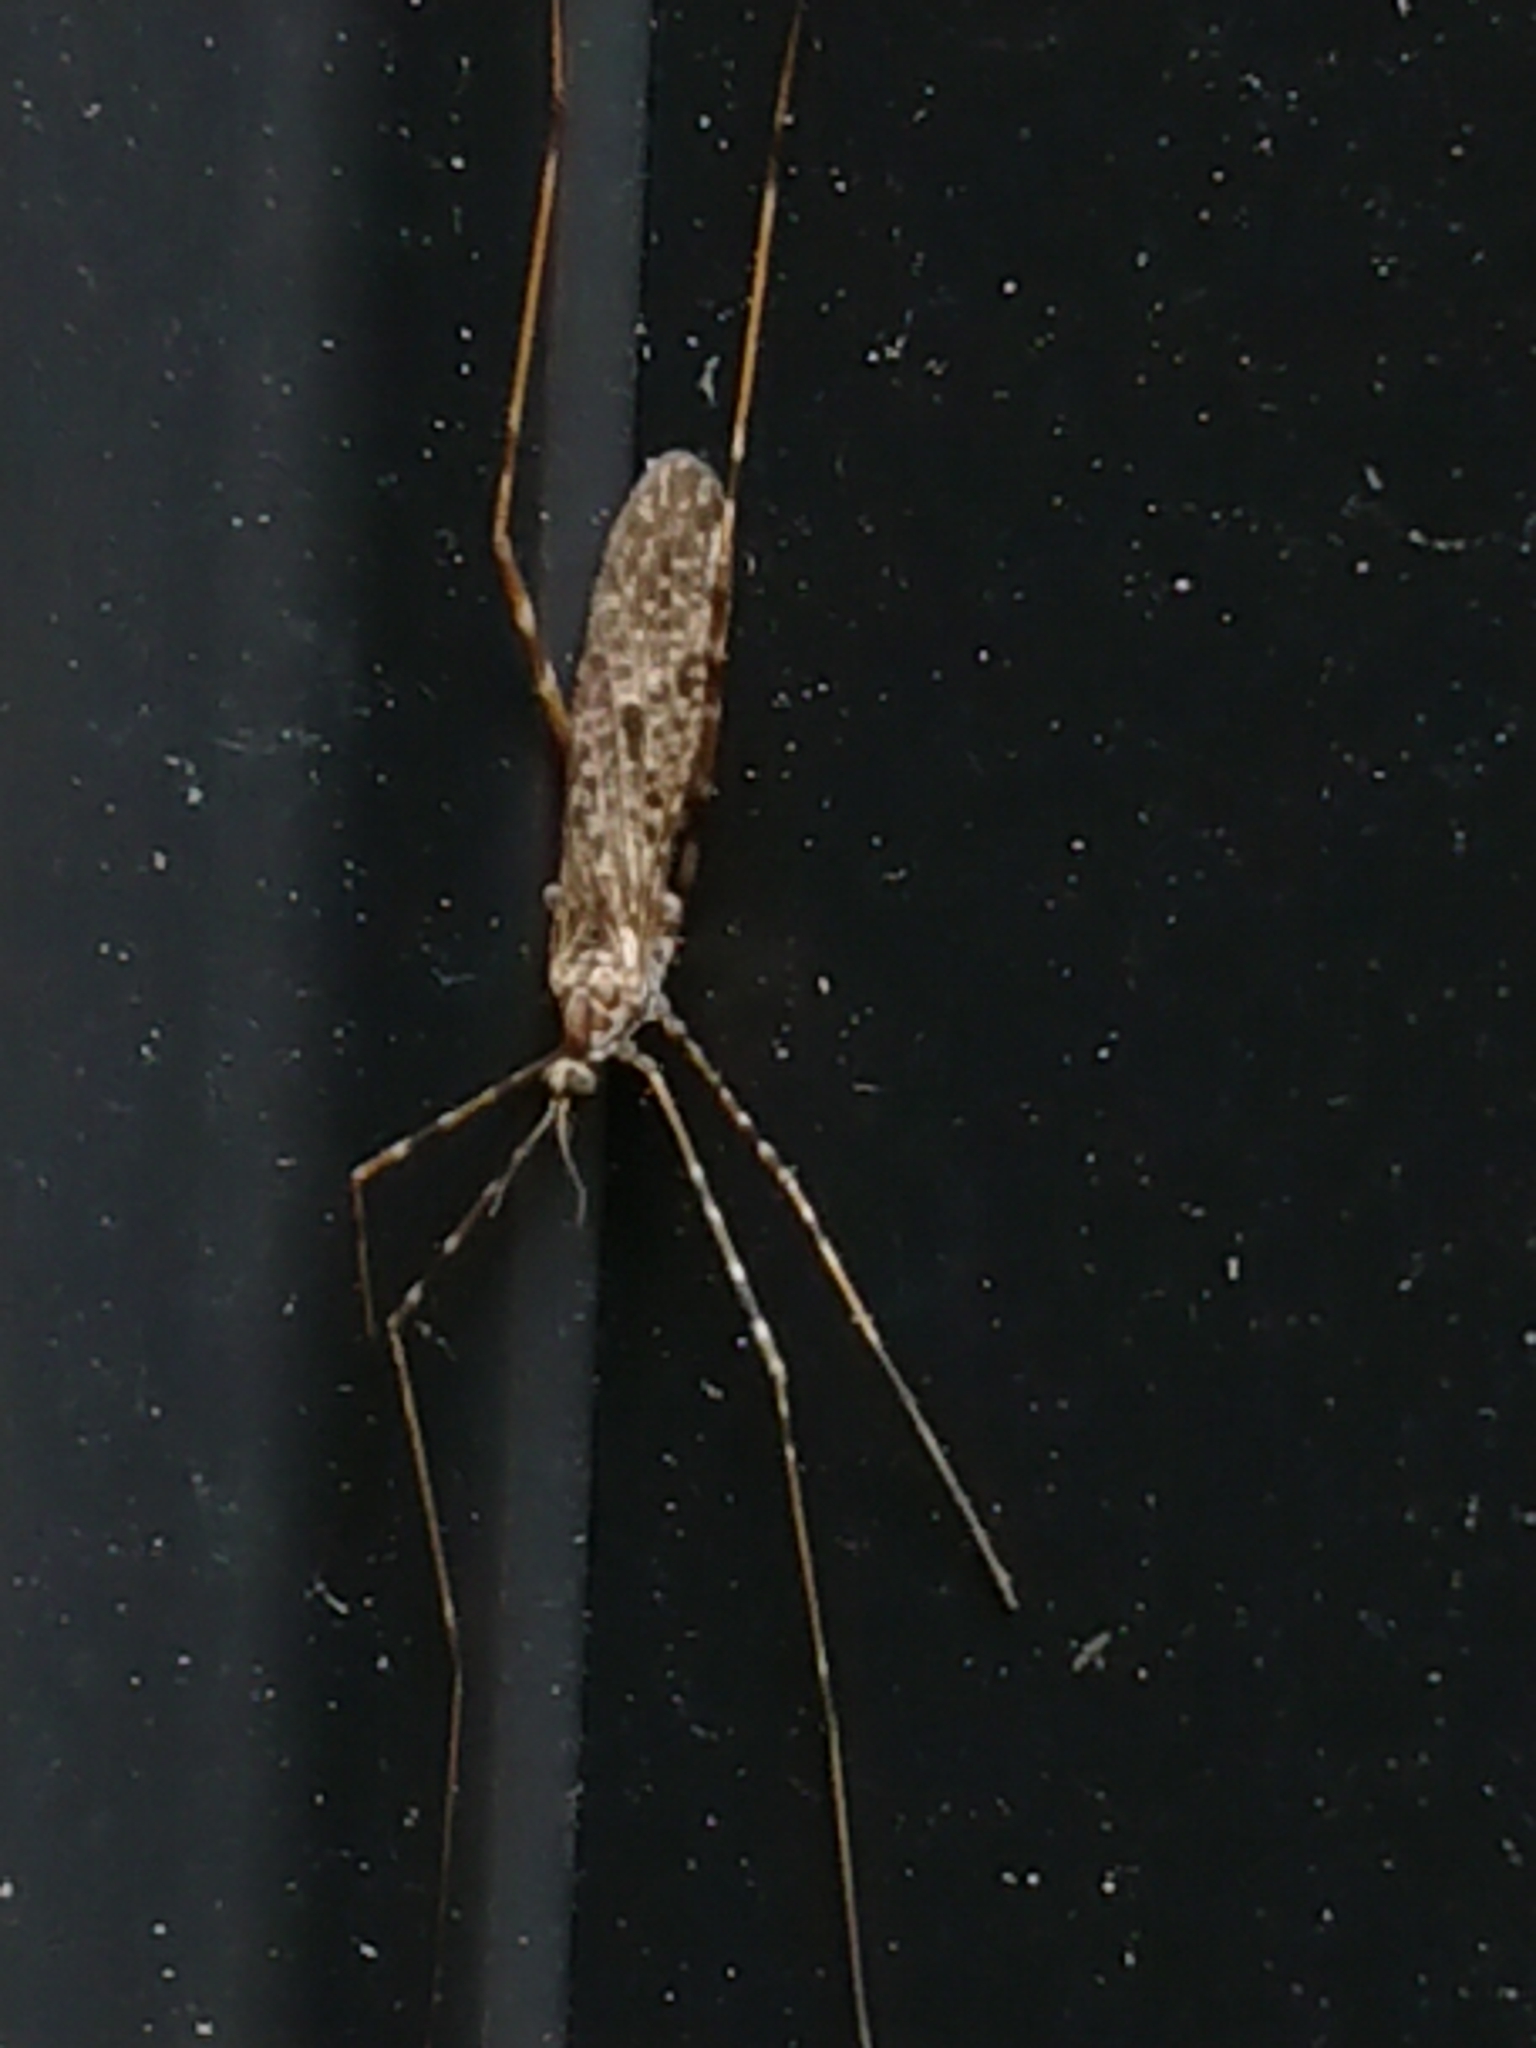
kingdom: Animalia
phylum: Arthropoda
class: Insecta
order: Diptera
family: Limoniidae
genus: Amphineurus
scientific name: Amphineurus hudsoni
